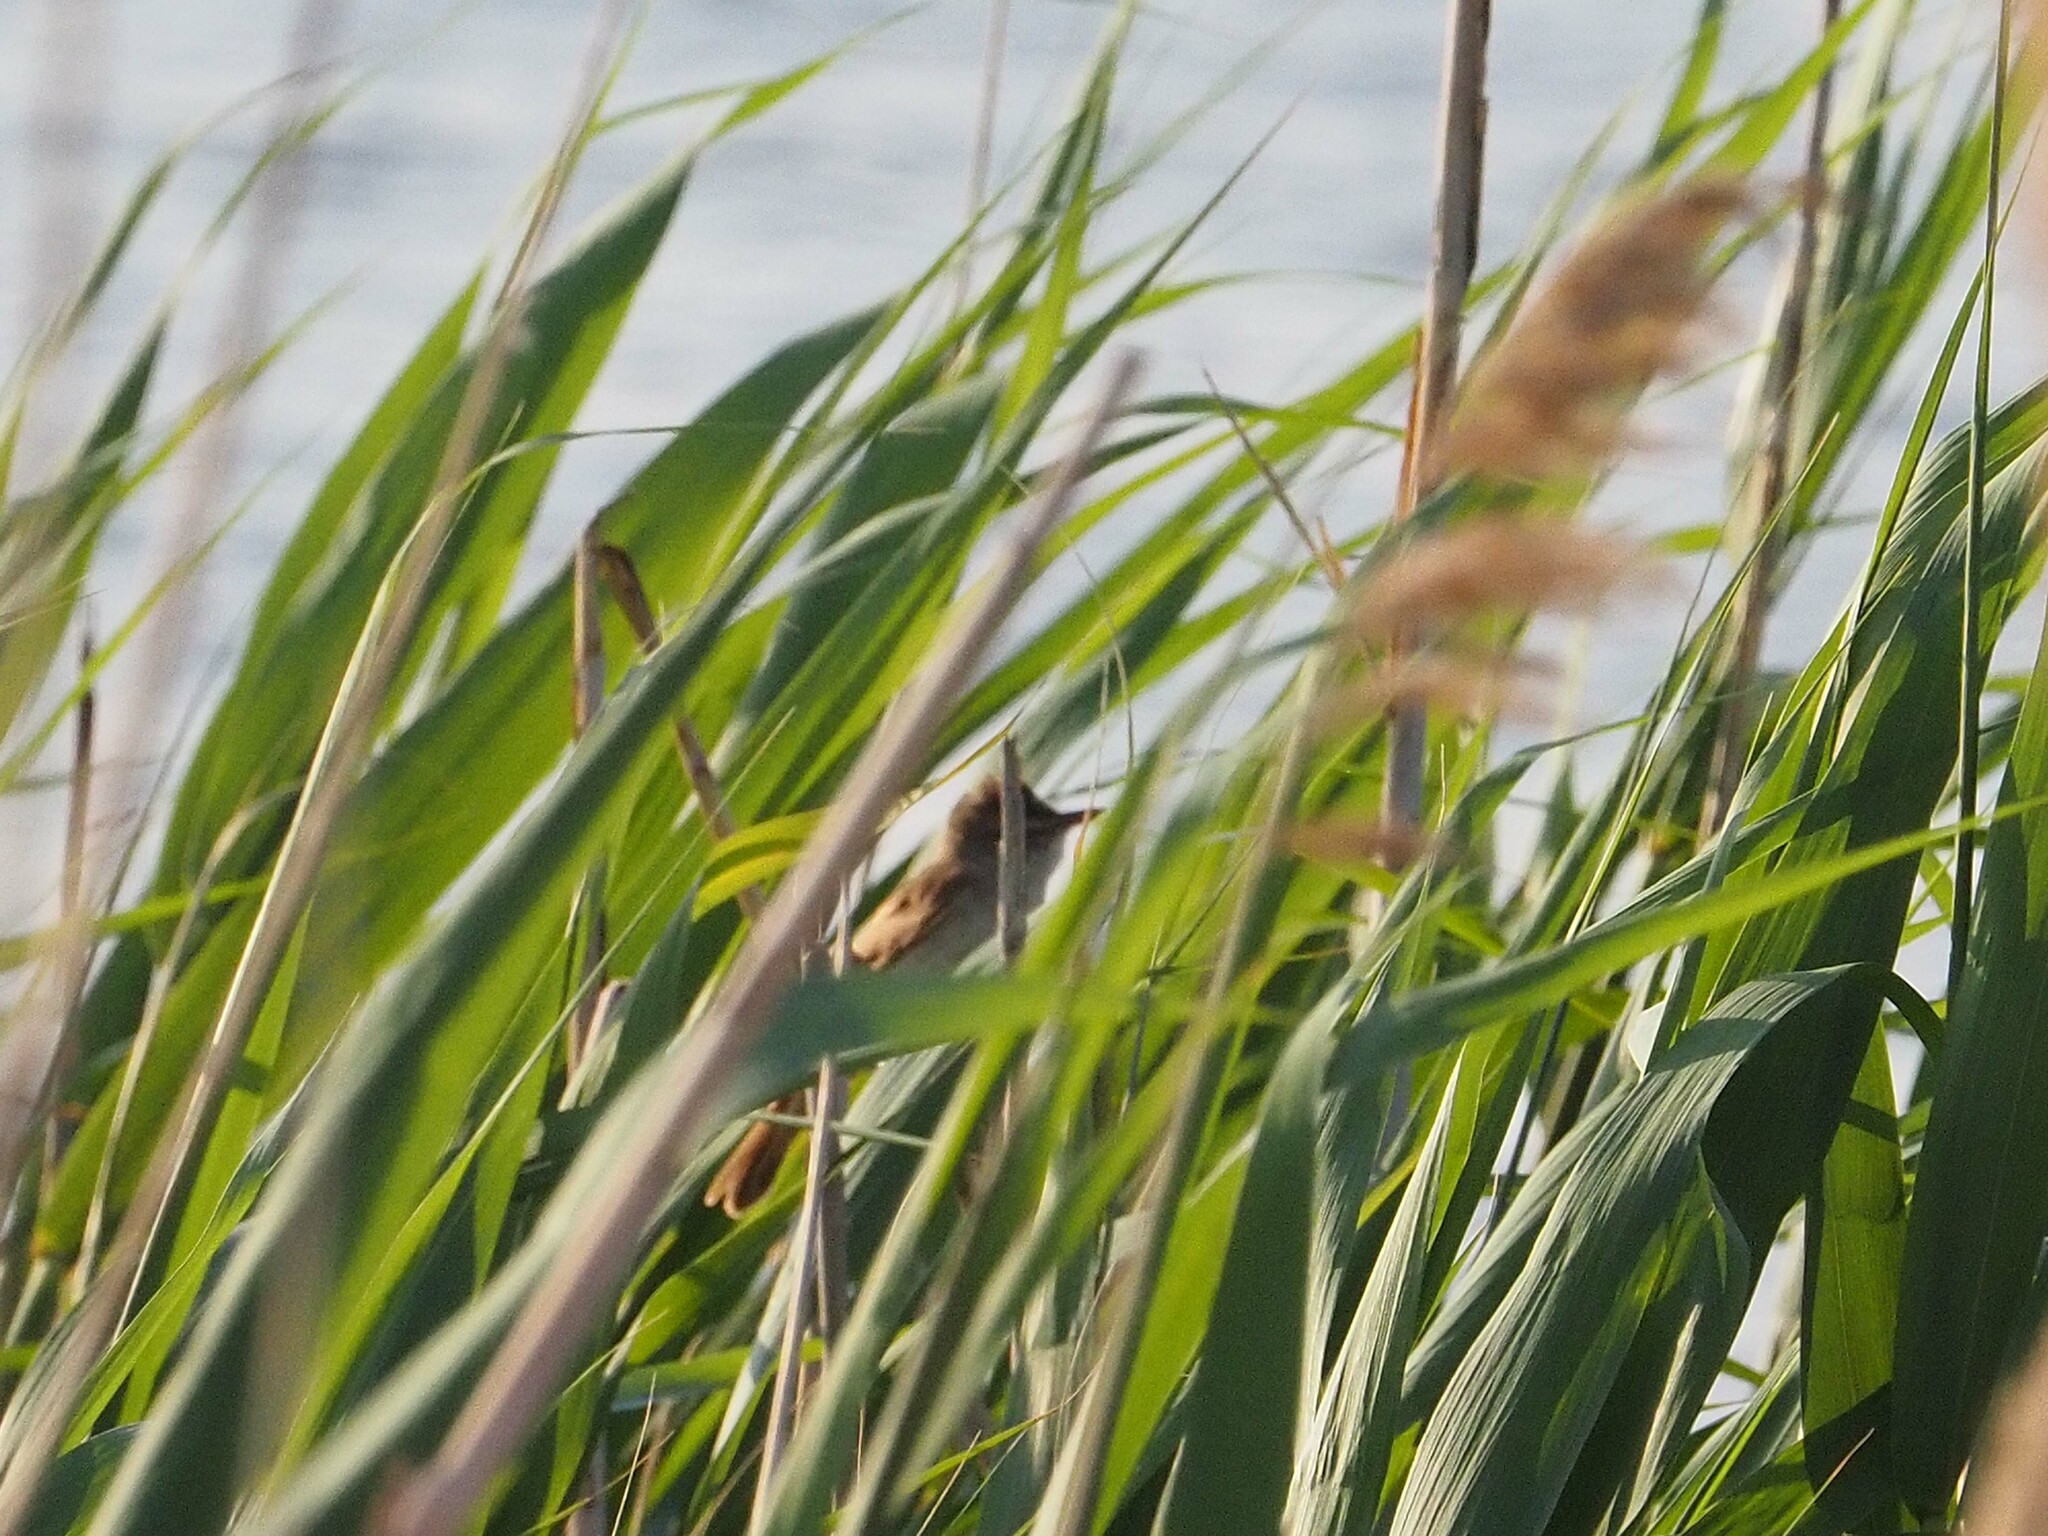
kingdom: Animalia
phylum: Chordata
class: Aves
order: Passeriformes
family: Acrocephalidae
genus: Acrocephalus
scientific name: Acrocephalus arundinaceus
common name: Great reed warbler
